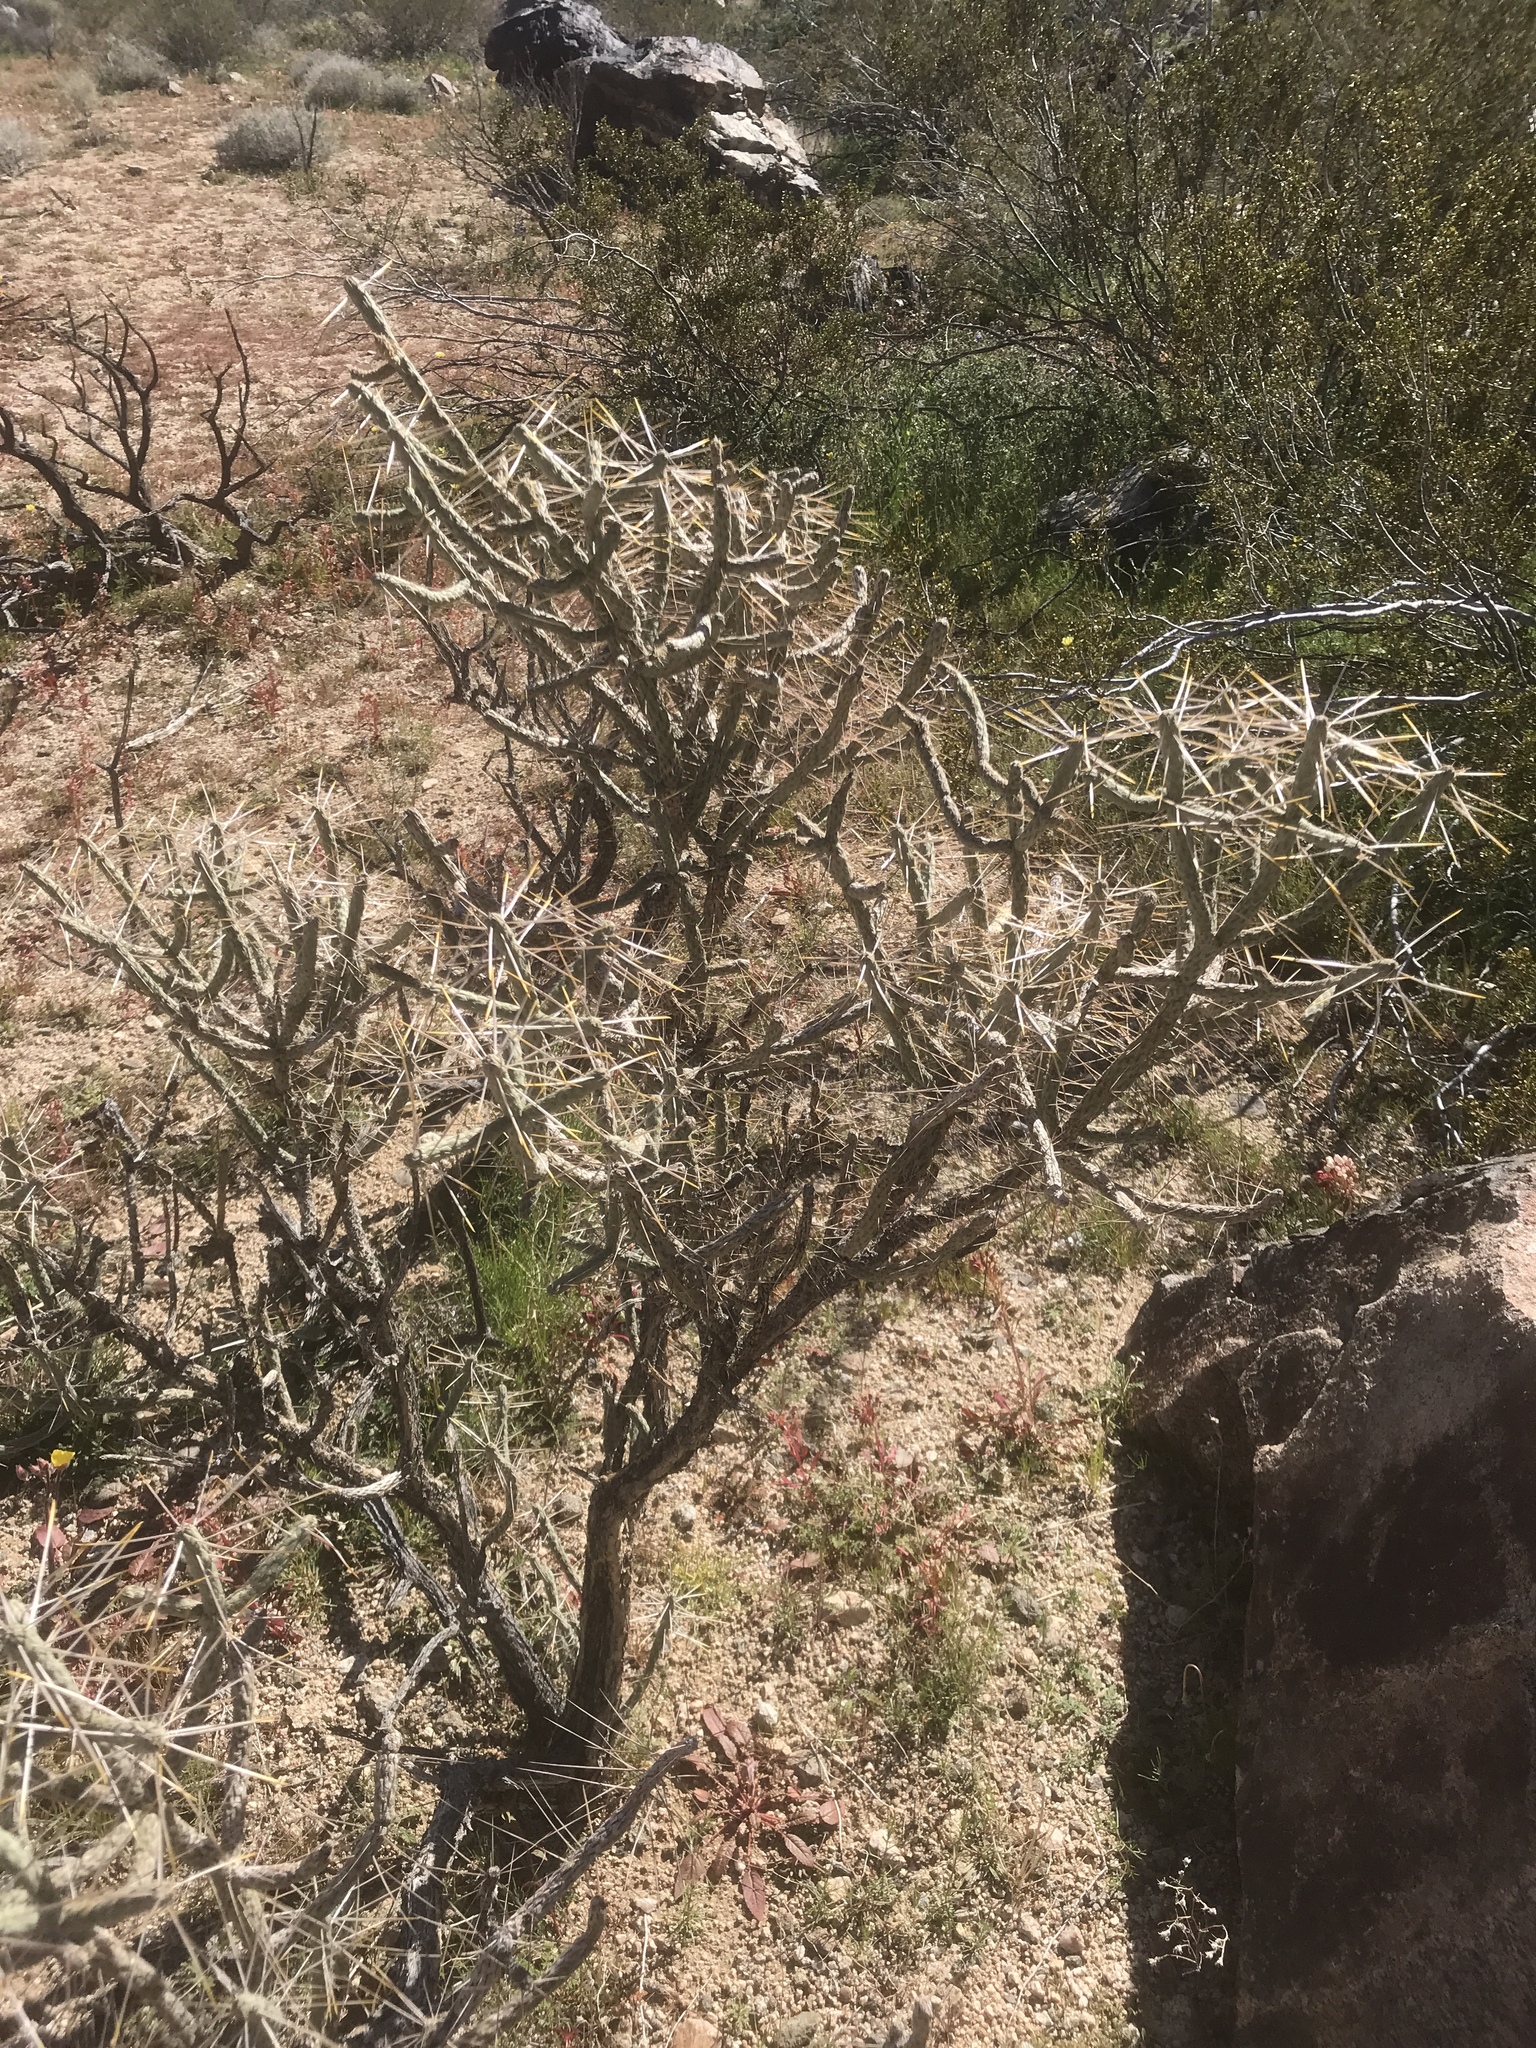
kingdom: Plantae
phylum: Tracheophyta
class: Magnoliopsida
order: Caryophyllales
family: Cactaceae
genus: Cylindropuntia
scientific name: Cylindropuntia ramosissima
